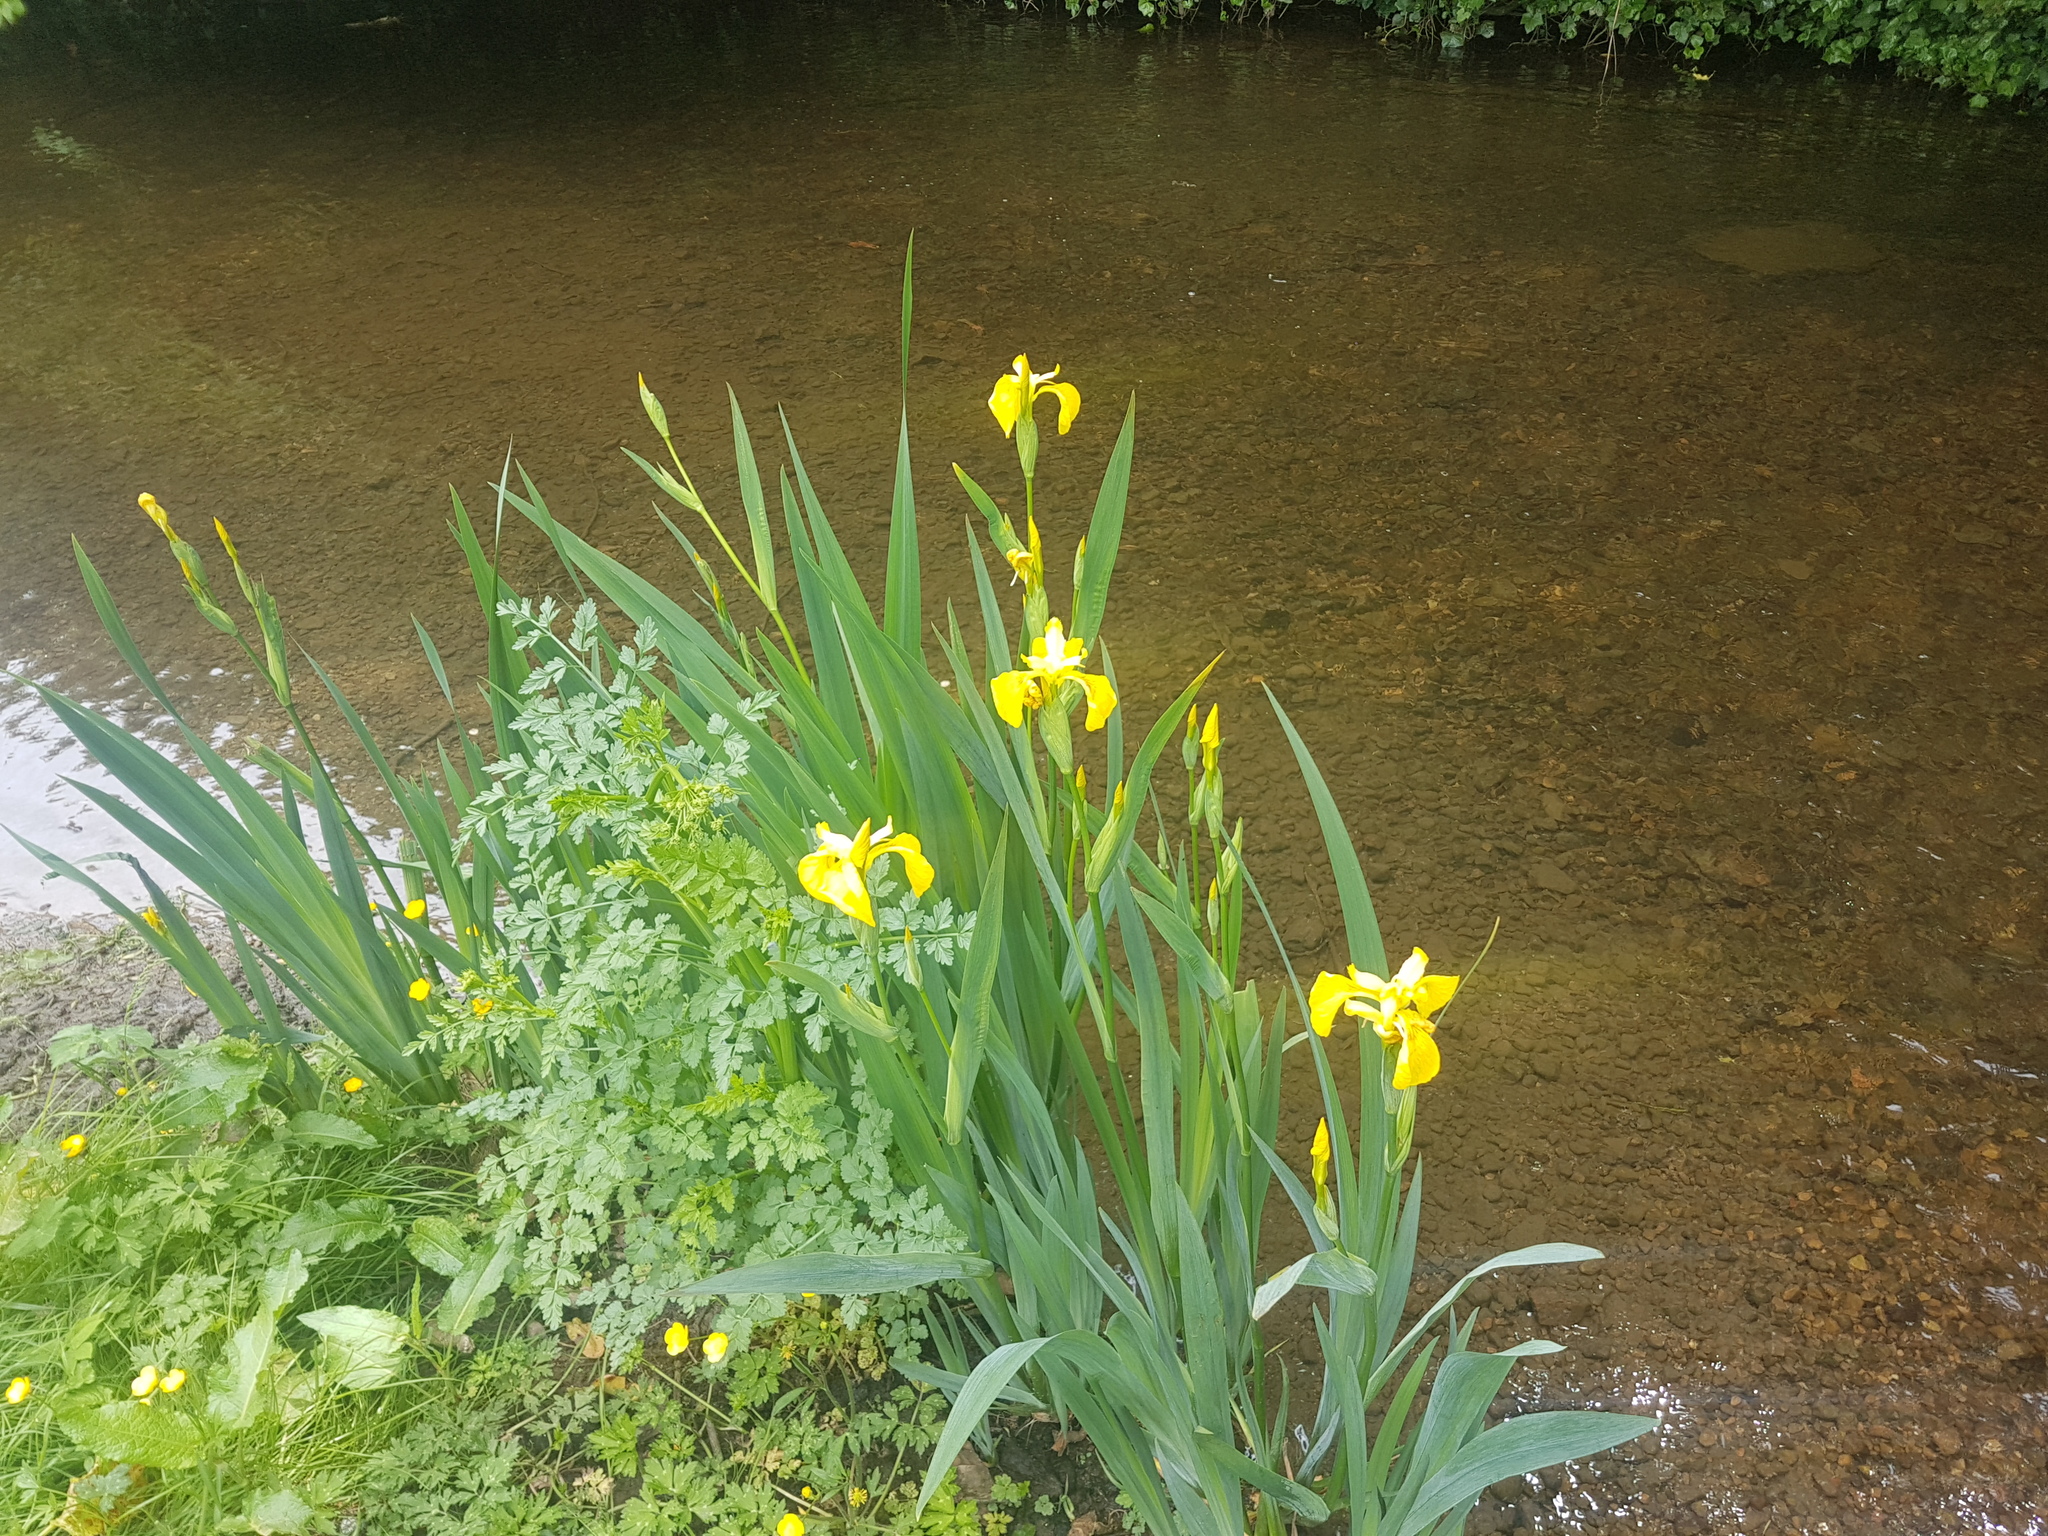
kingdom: Plantae
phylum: Tracheophyta
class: Liliopsida
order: Asparagales
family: Iridaceae
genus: Iris
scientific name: Iris pseudacorus
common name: Yellow flag
